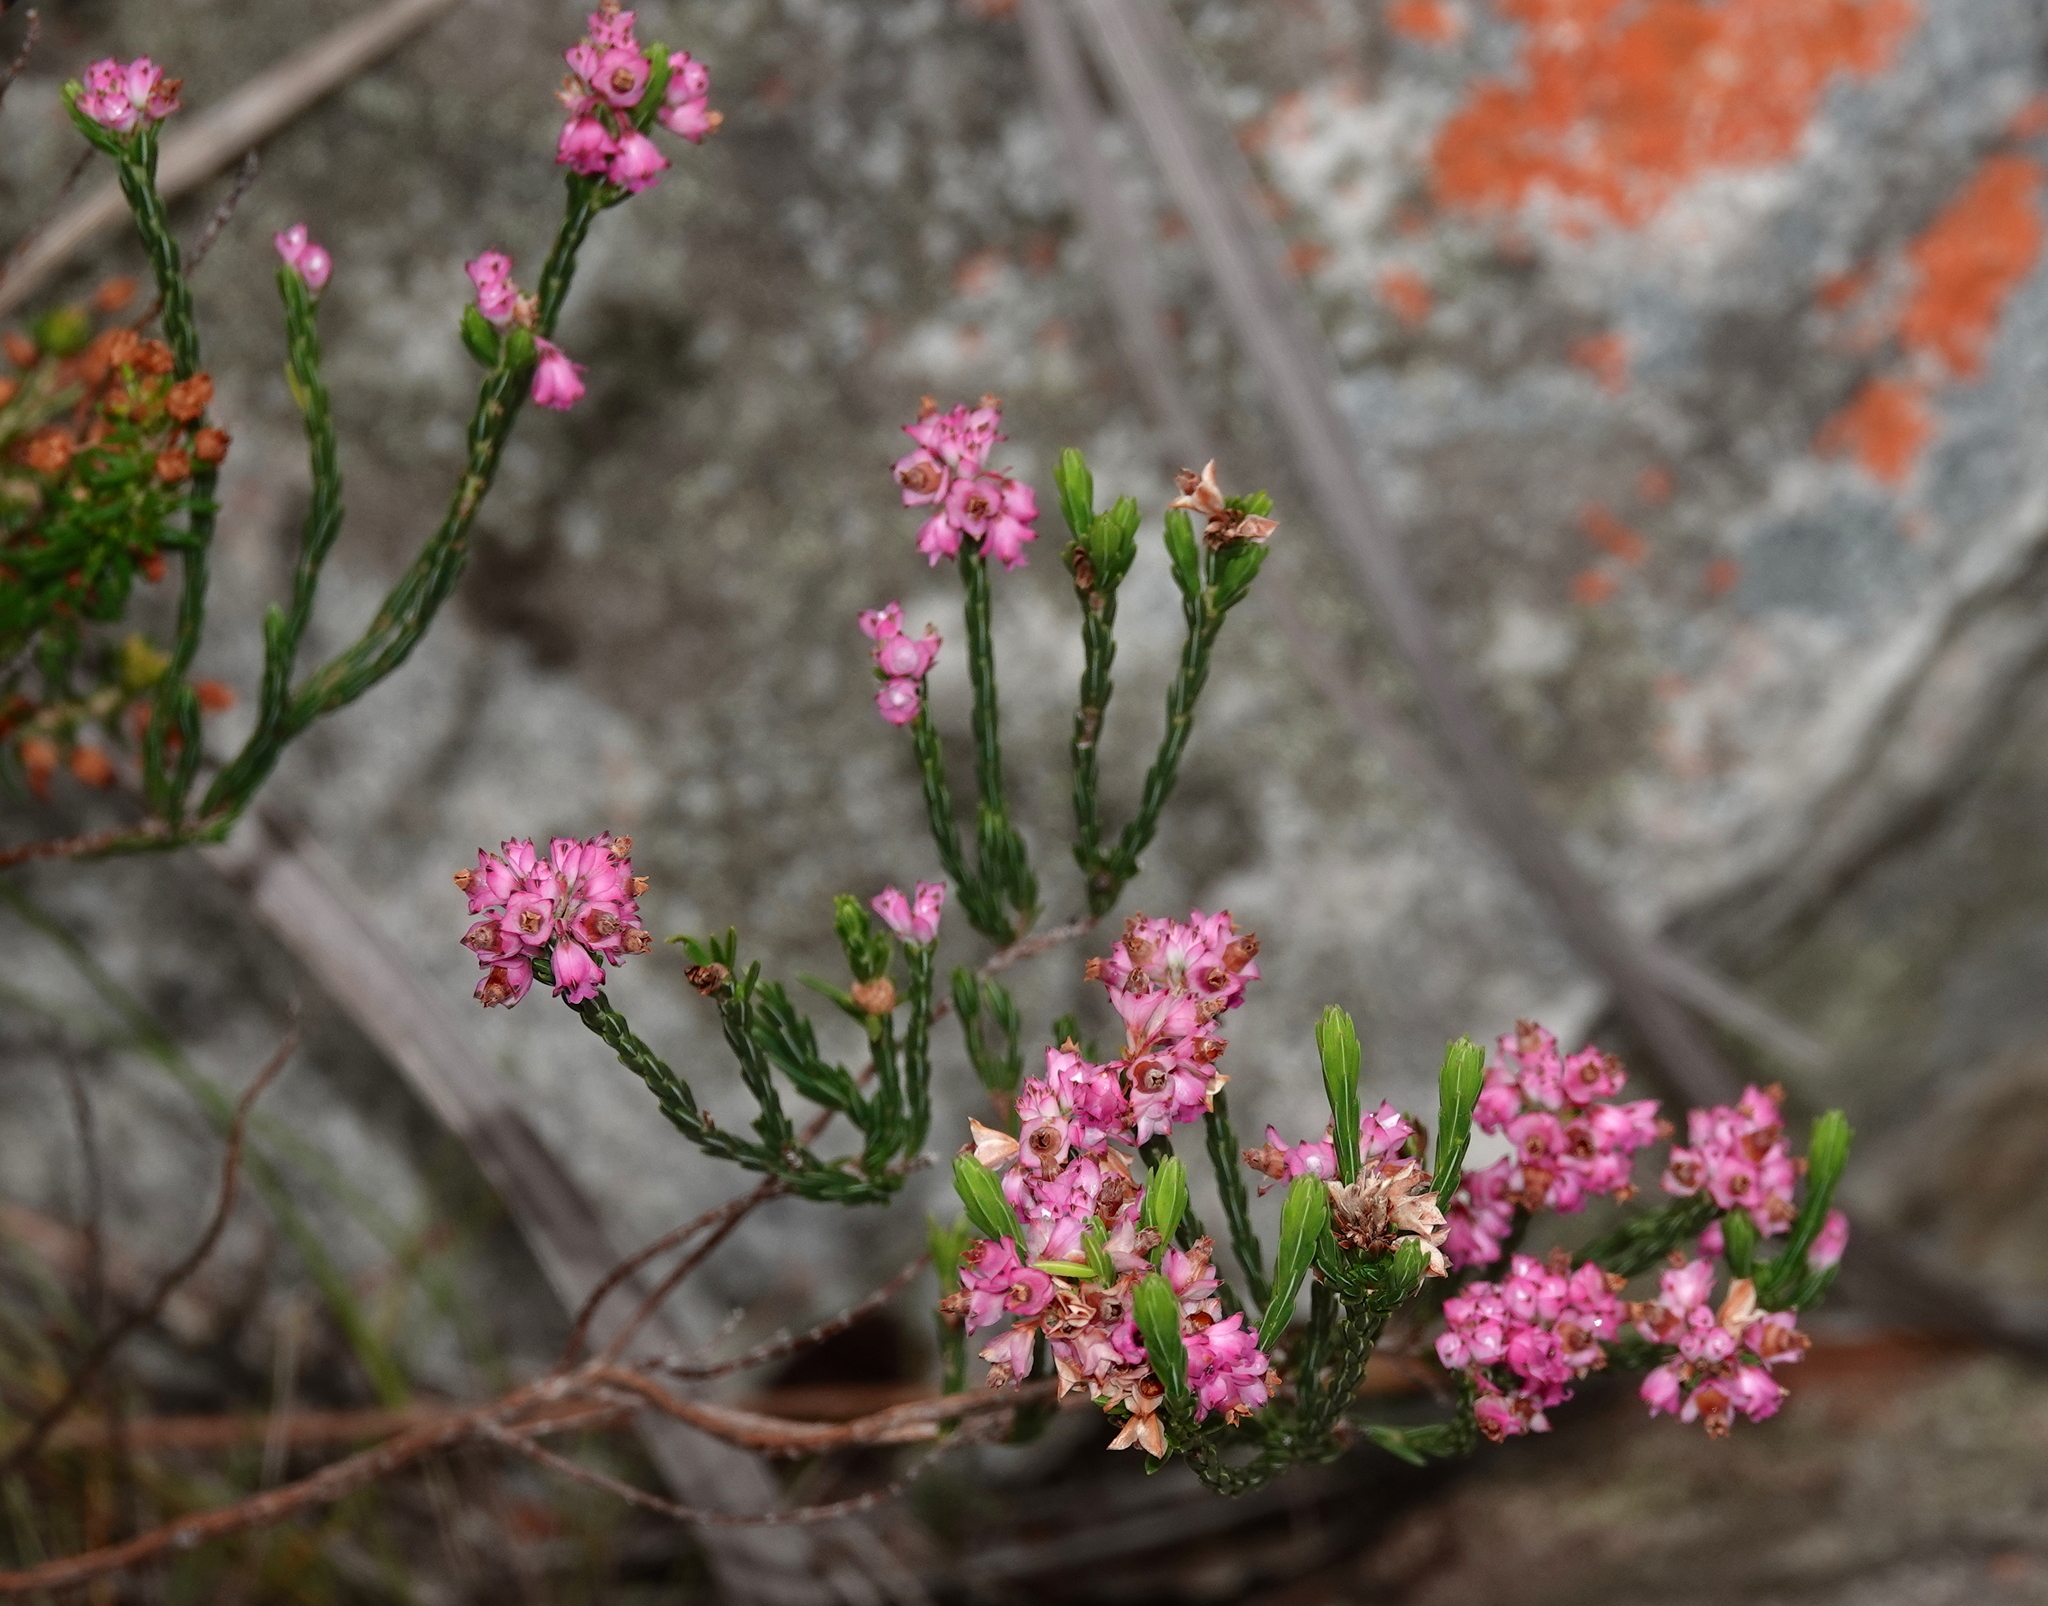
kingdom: Plantae
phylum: Tracheophyta
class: Magnoliopsida
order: Ericales
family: Ericaceae
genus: Erica
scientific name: Erica corifolia
